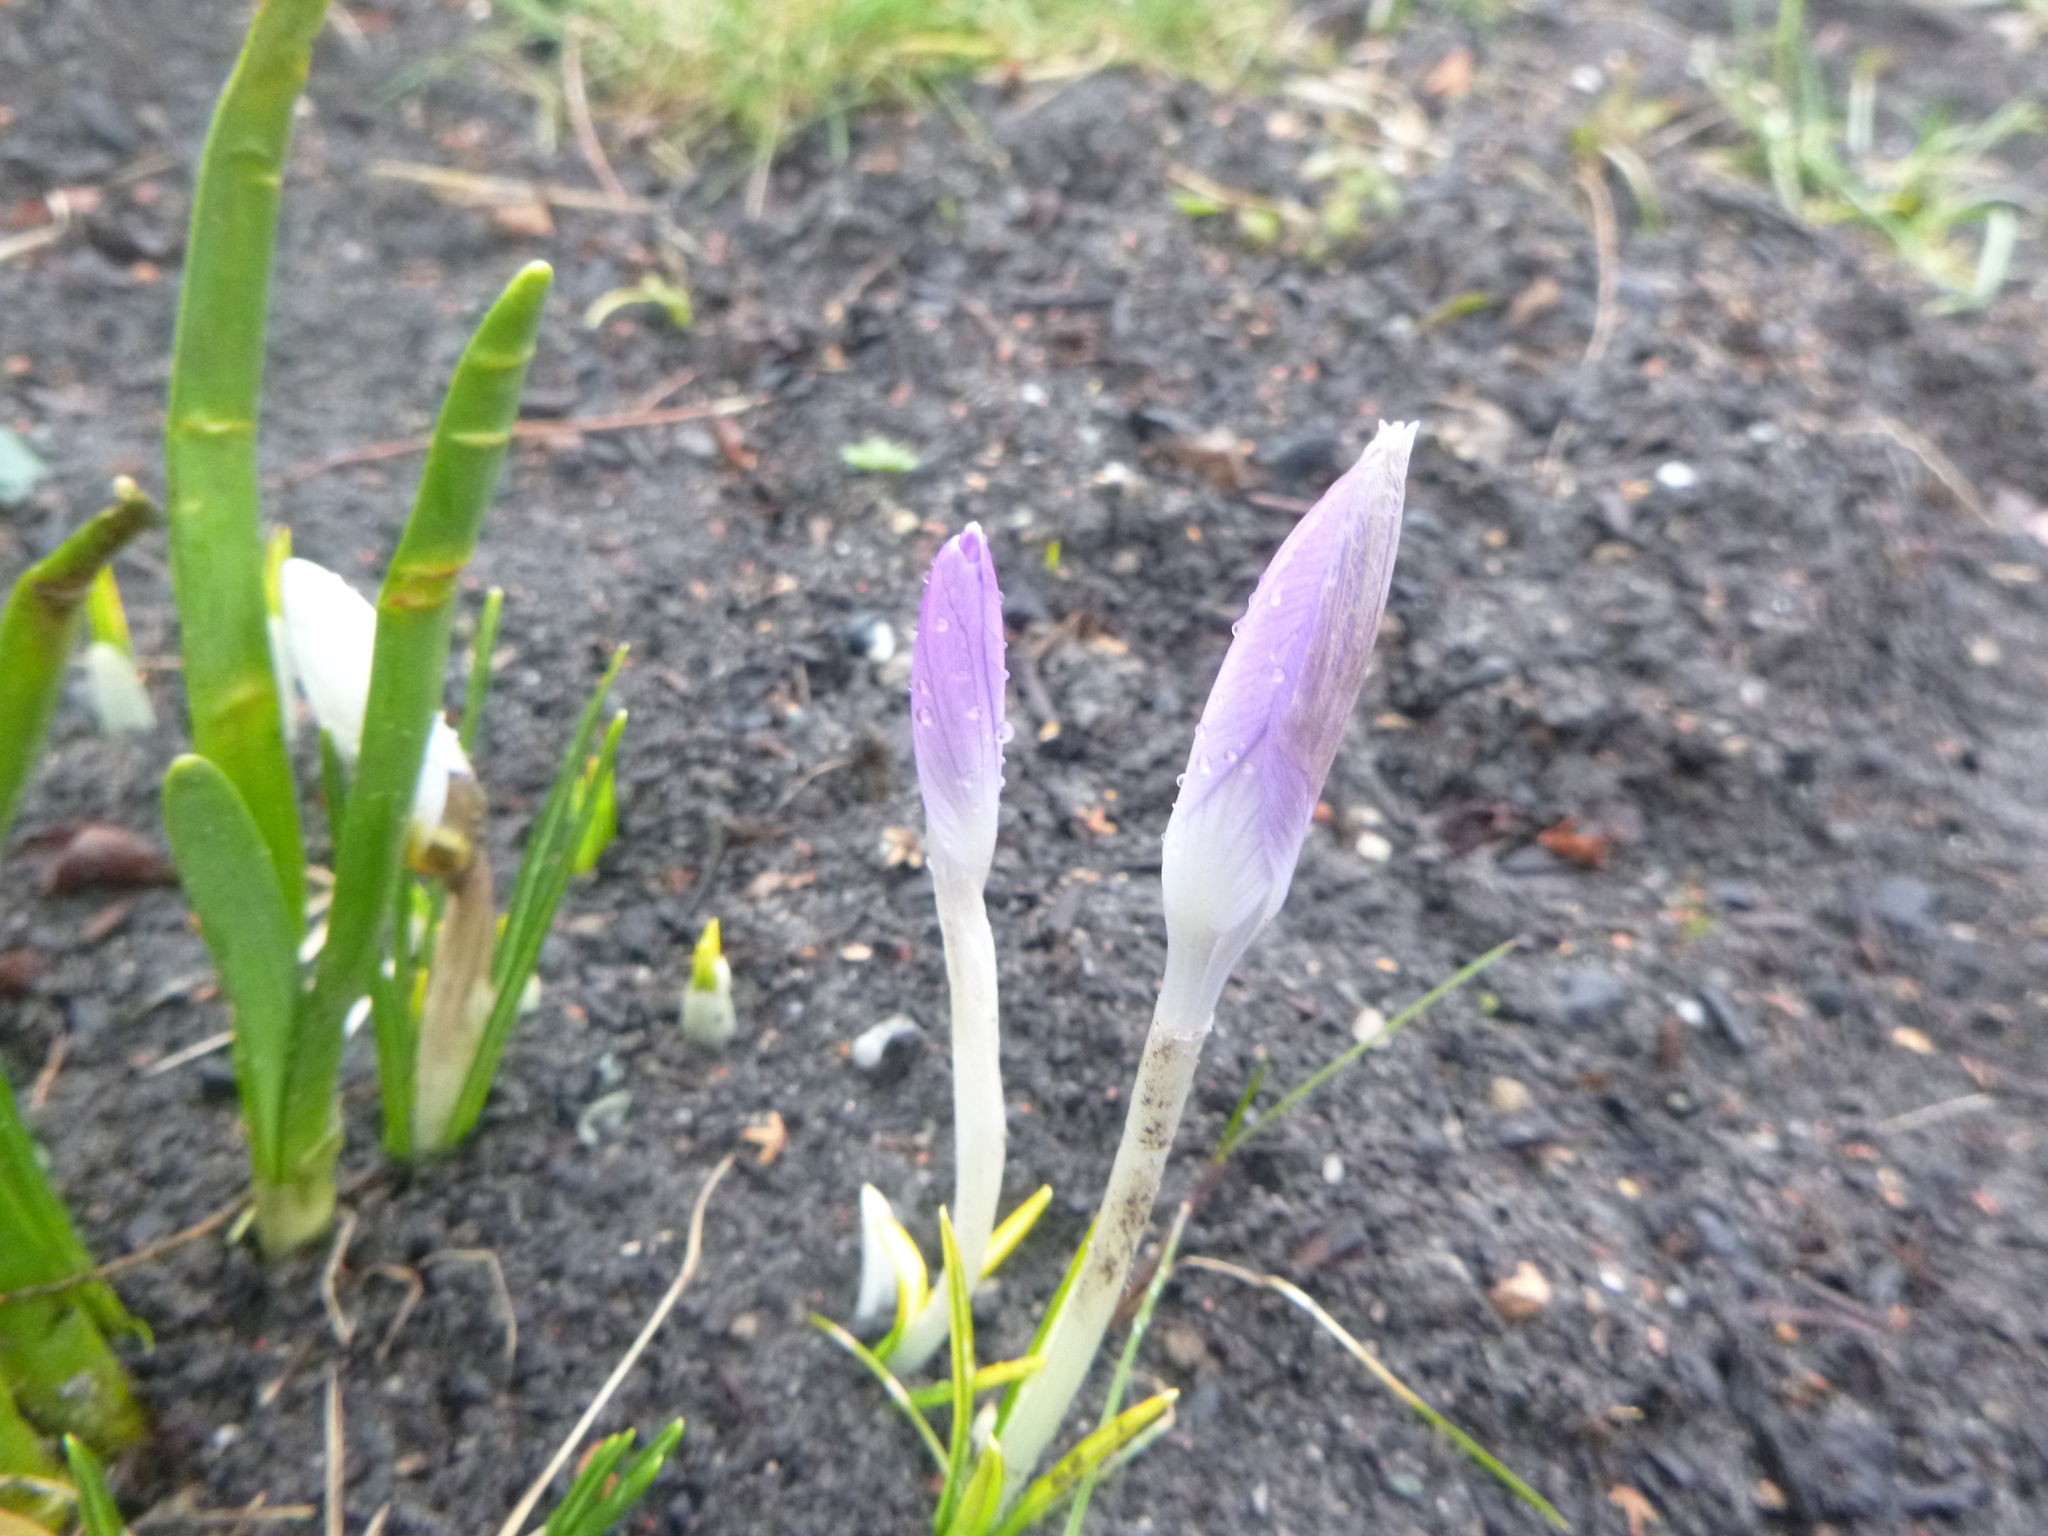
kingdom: Plantae
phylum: Tracheophyta
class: Liliopsida
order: Asparagales
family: Iridaceae
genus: Crocus
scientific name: Crocus tommasinianus
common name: Early crocus
